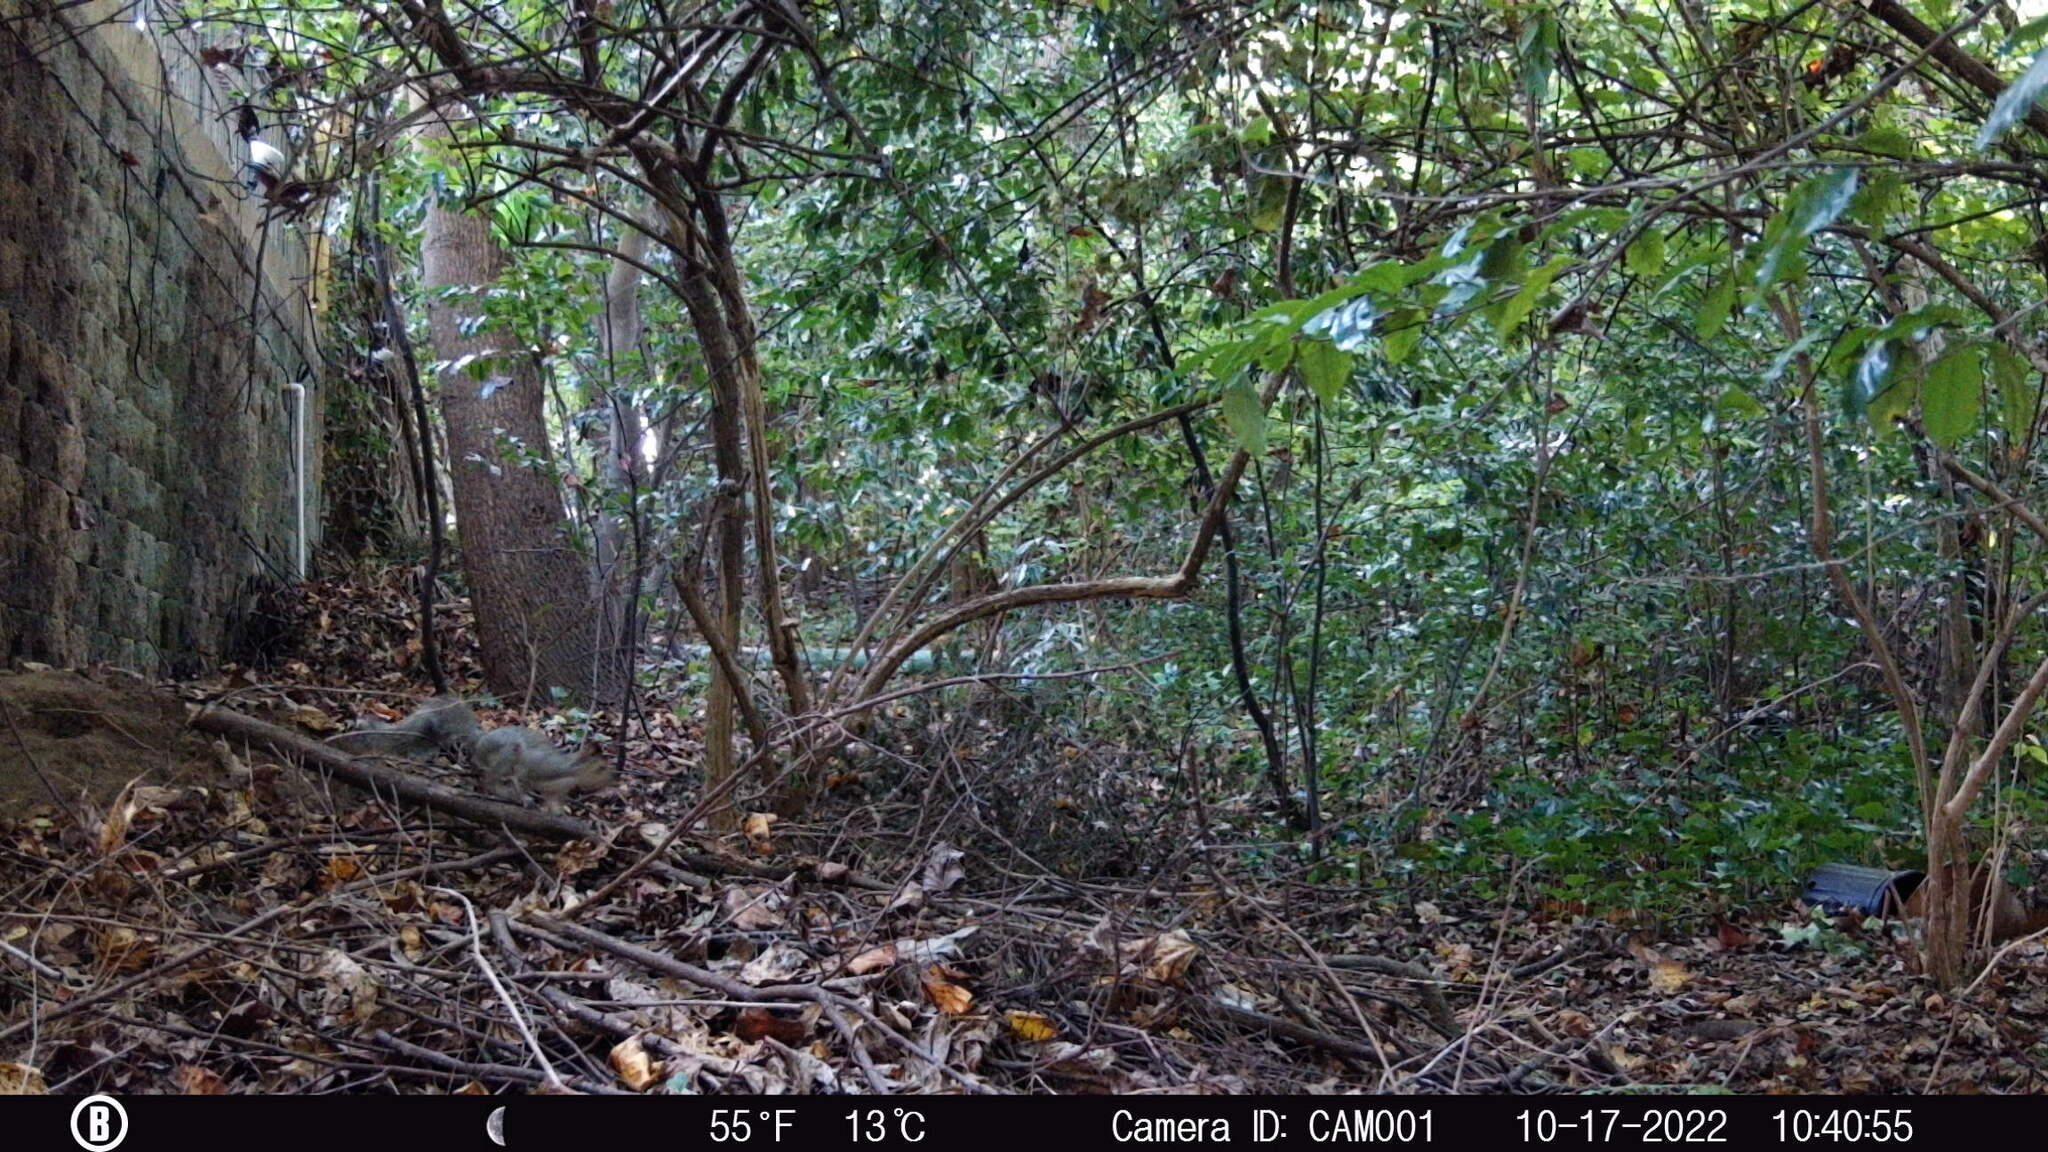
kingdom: Animalia
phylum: Chordata
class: Mammalia
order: Rodentia
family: Sciuridae
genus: Sciurus
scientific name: Sciurus carolinensis
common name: Eastern gray squirrel
